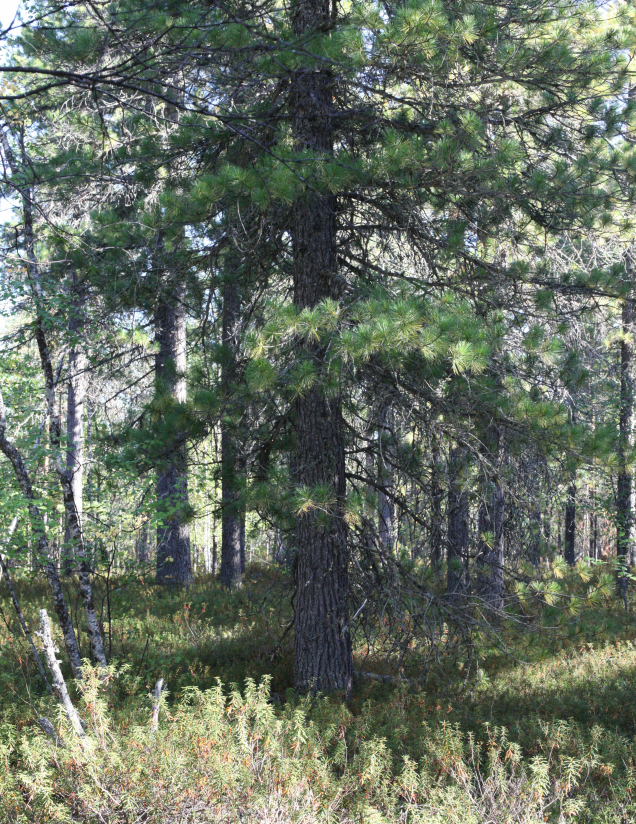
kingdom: Plantae
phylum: Tracheophyta
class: Pinopsida
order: Pinales
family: Pinaceae
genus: Pinus
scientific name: Pinus sibirica
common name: Siberian pine
